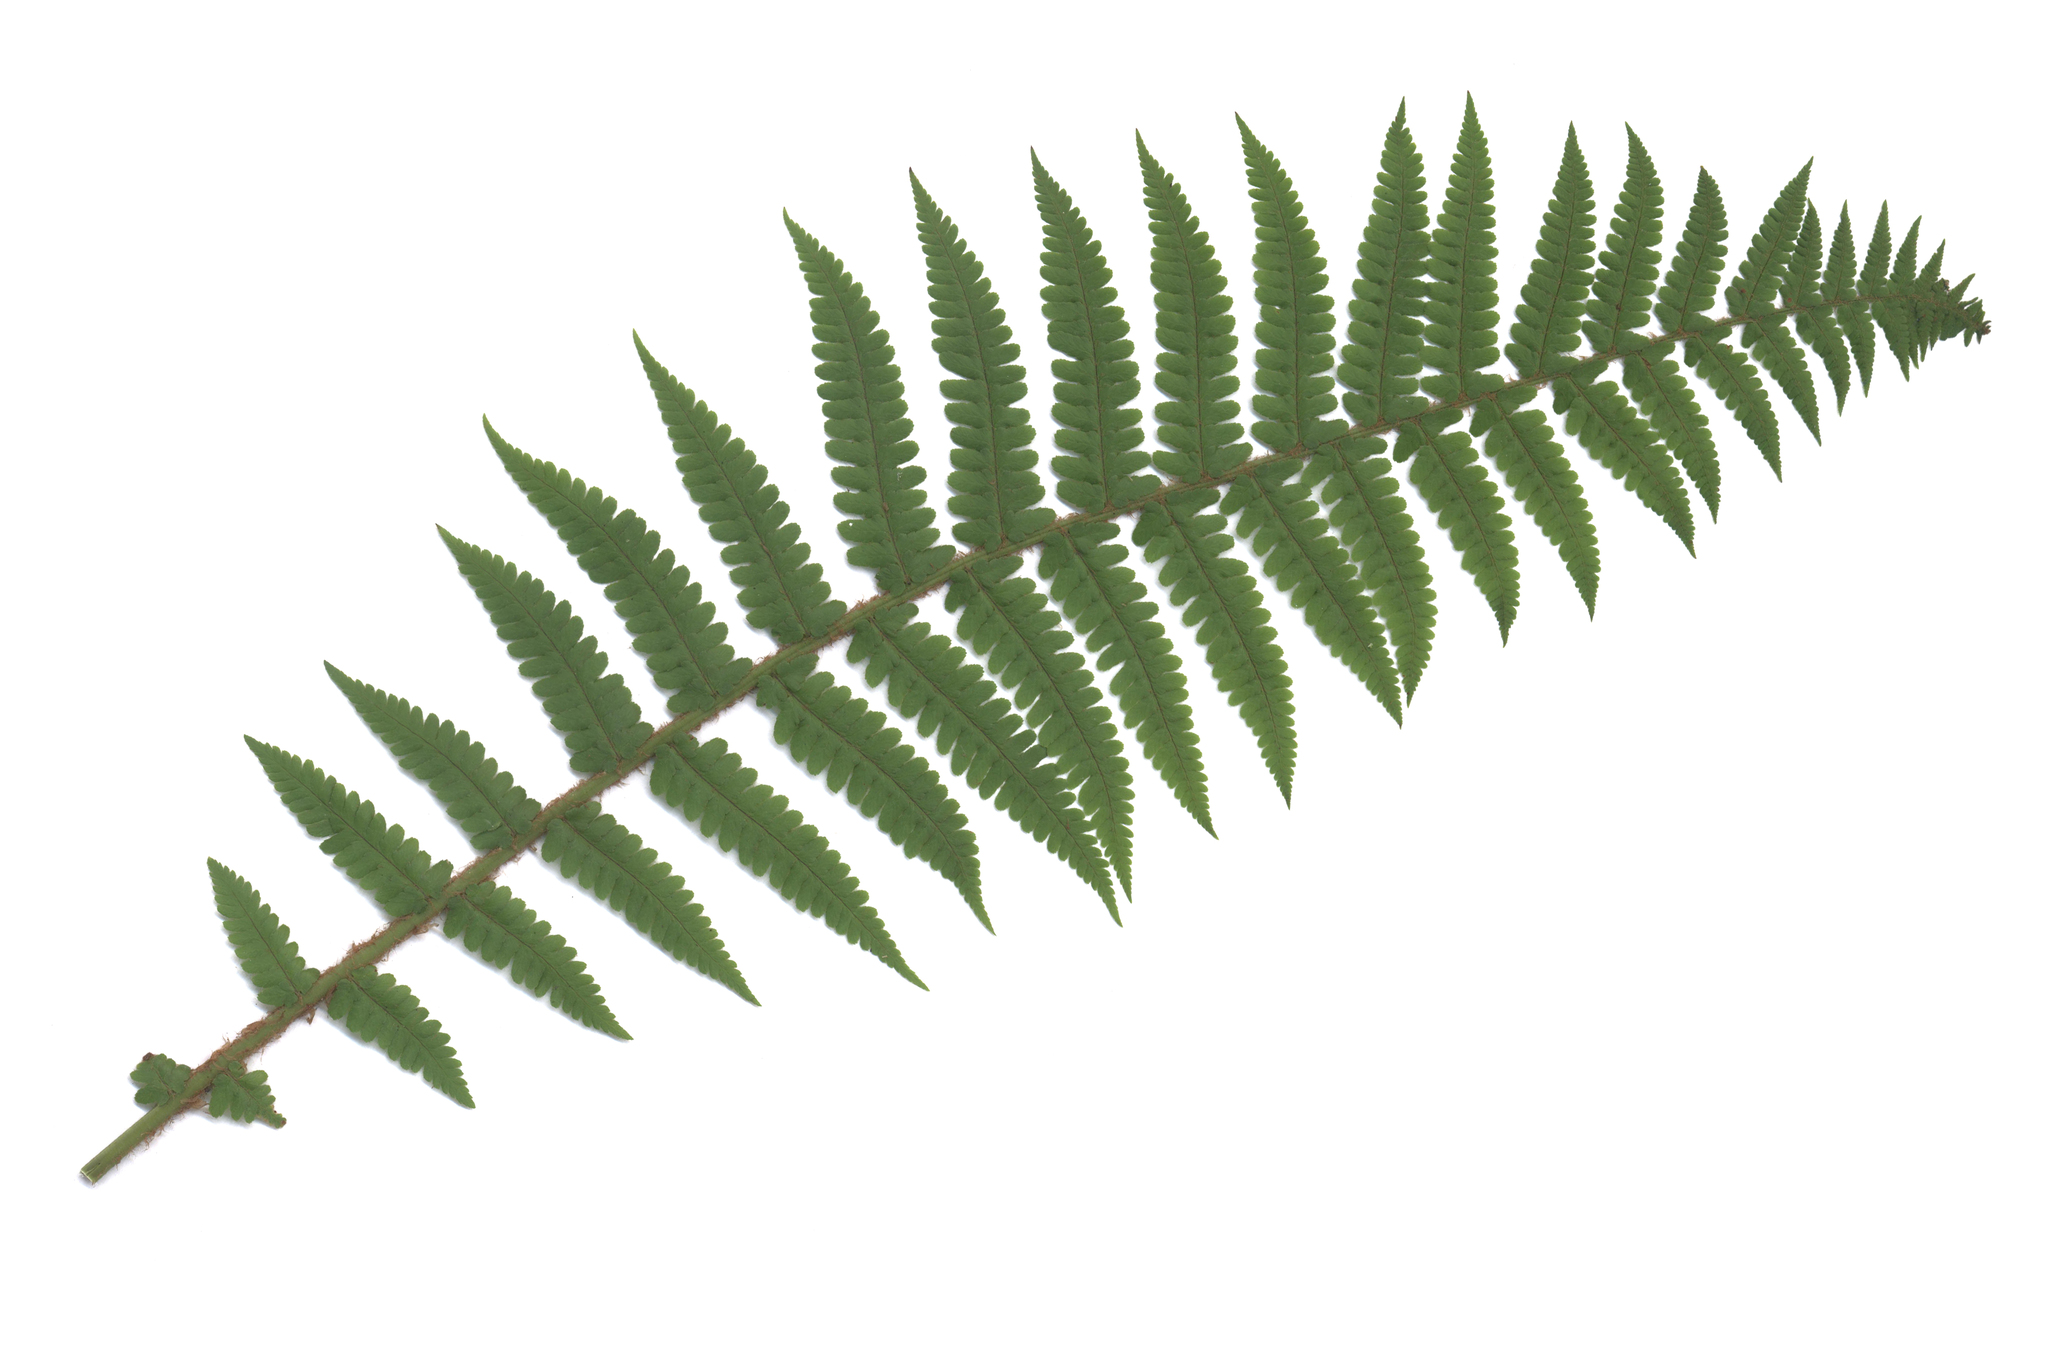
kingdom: Plantae
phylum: Tracheophyta
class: Polypodiopsida
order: Polypodiales
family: Dryopteridaceae
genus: Dryopteris
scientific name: Dryopteris filix-mas
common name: Male fern
